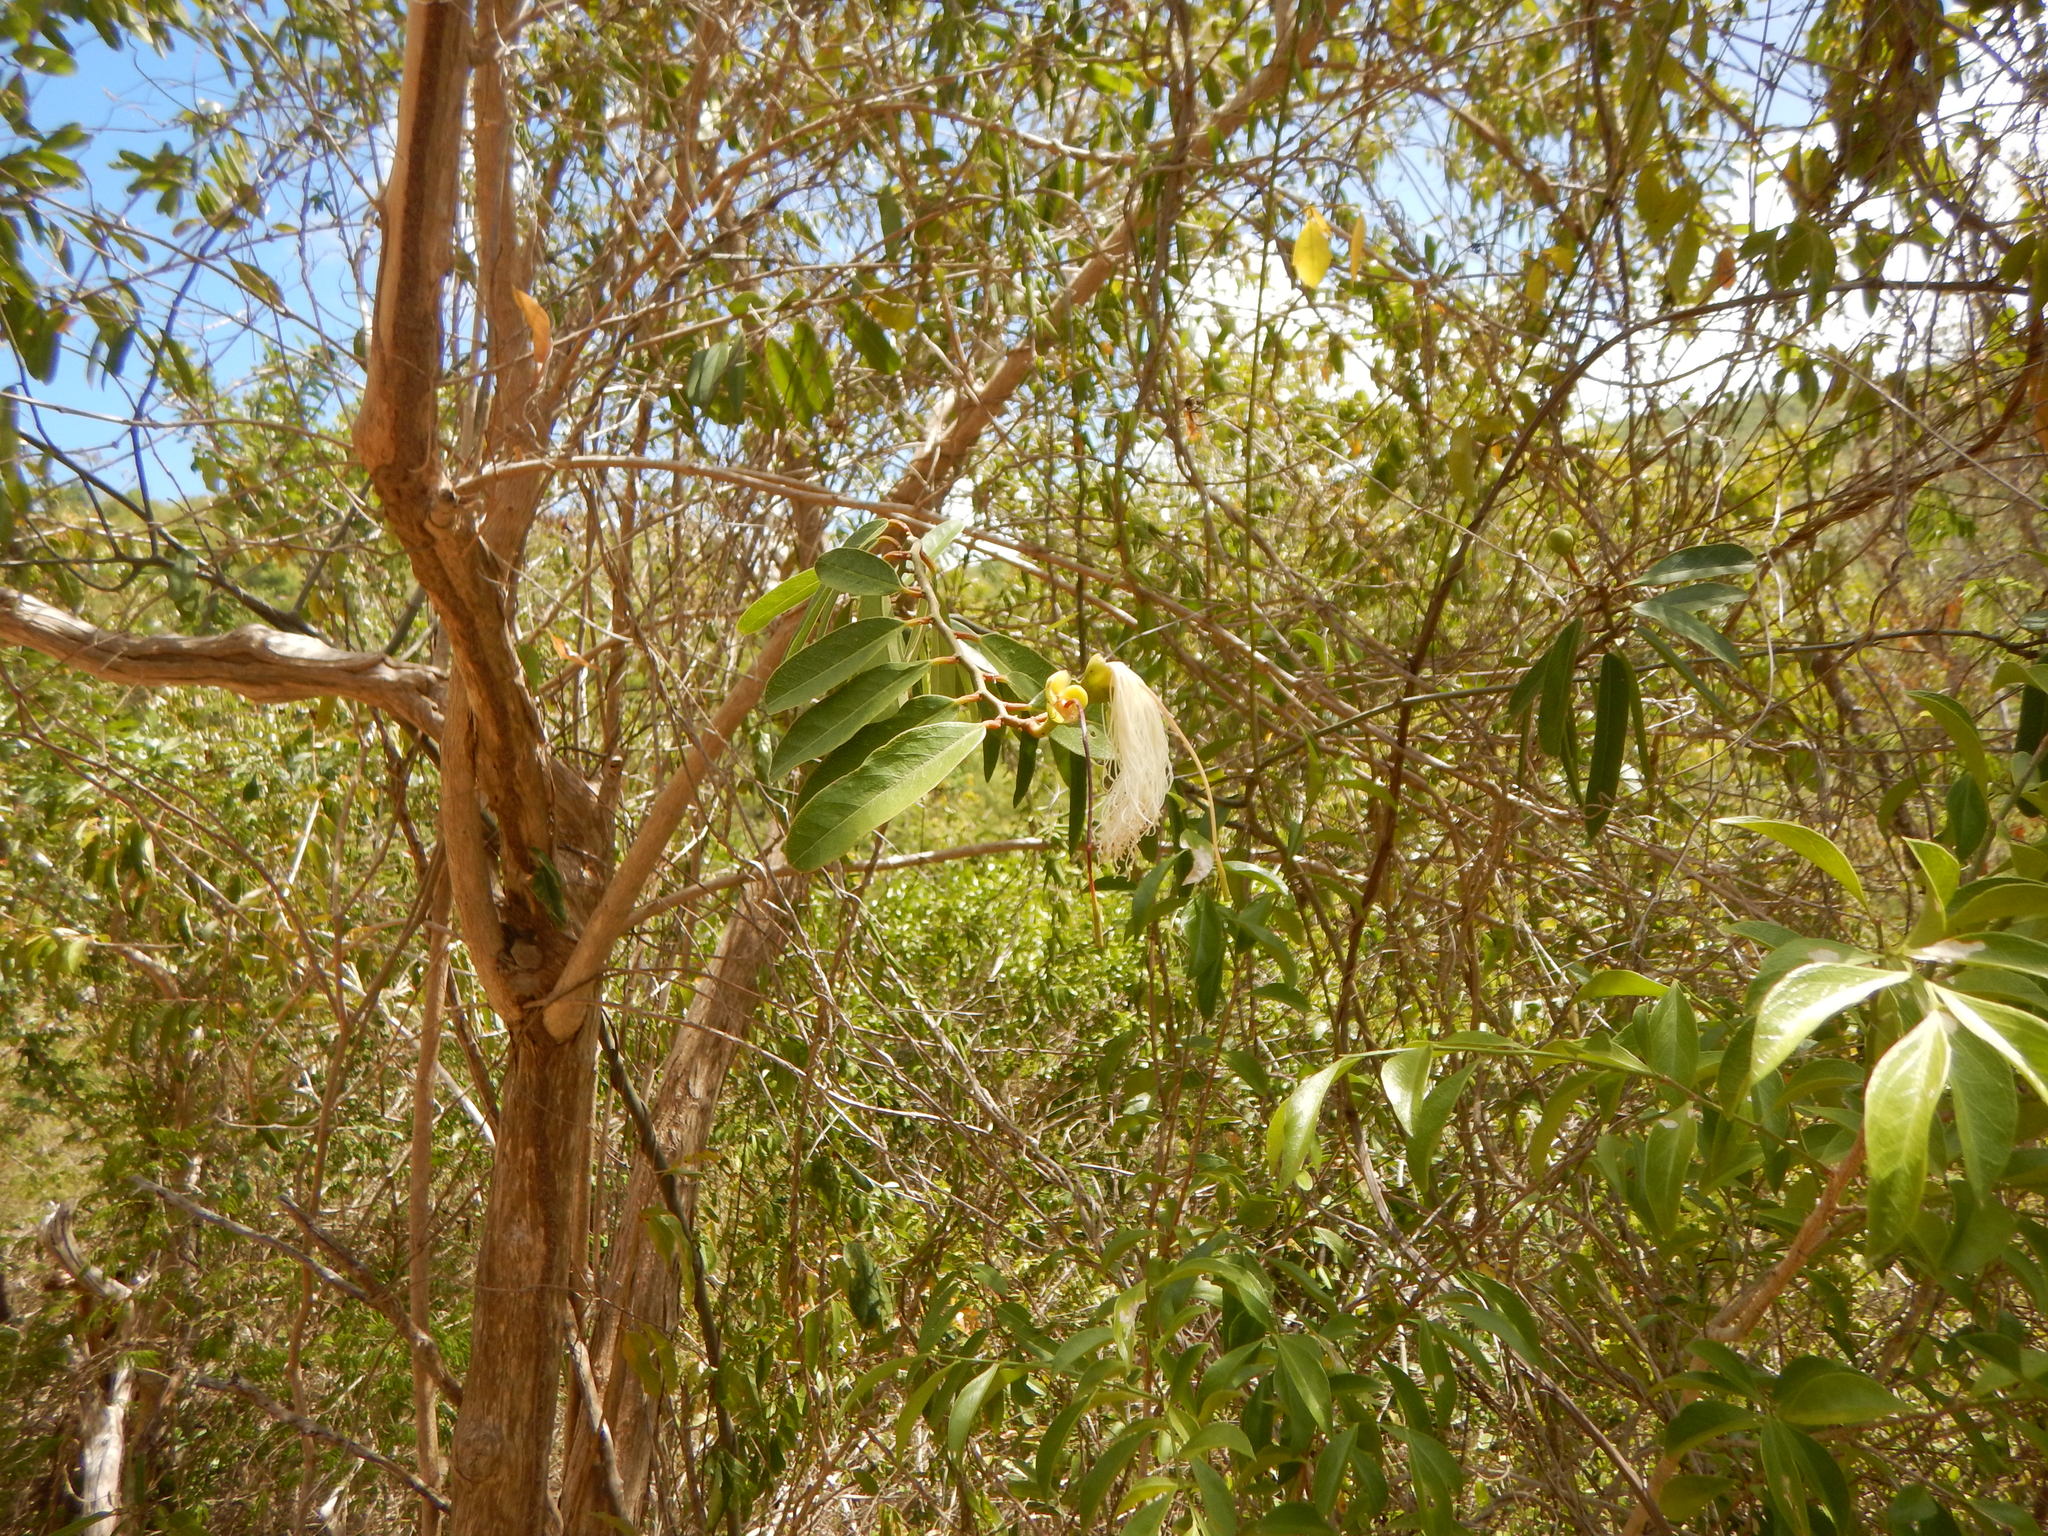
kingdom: Plantae
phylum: Tracheophyta
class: Magnoliopsida
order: Brassicales
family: Capparaceae
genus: Cynophalla
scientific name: Cynophalla flexuosa
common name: Capertree
